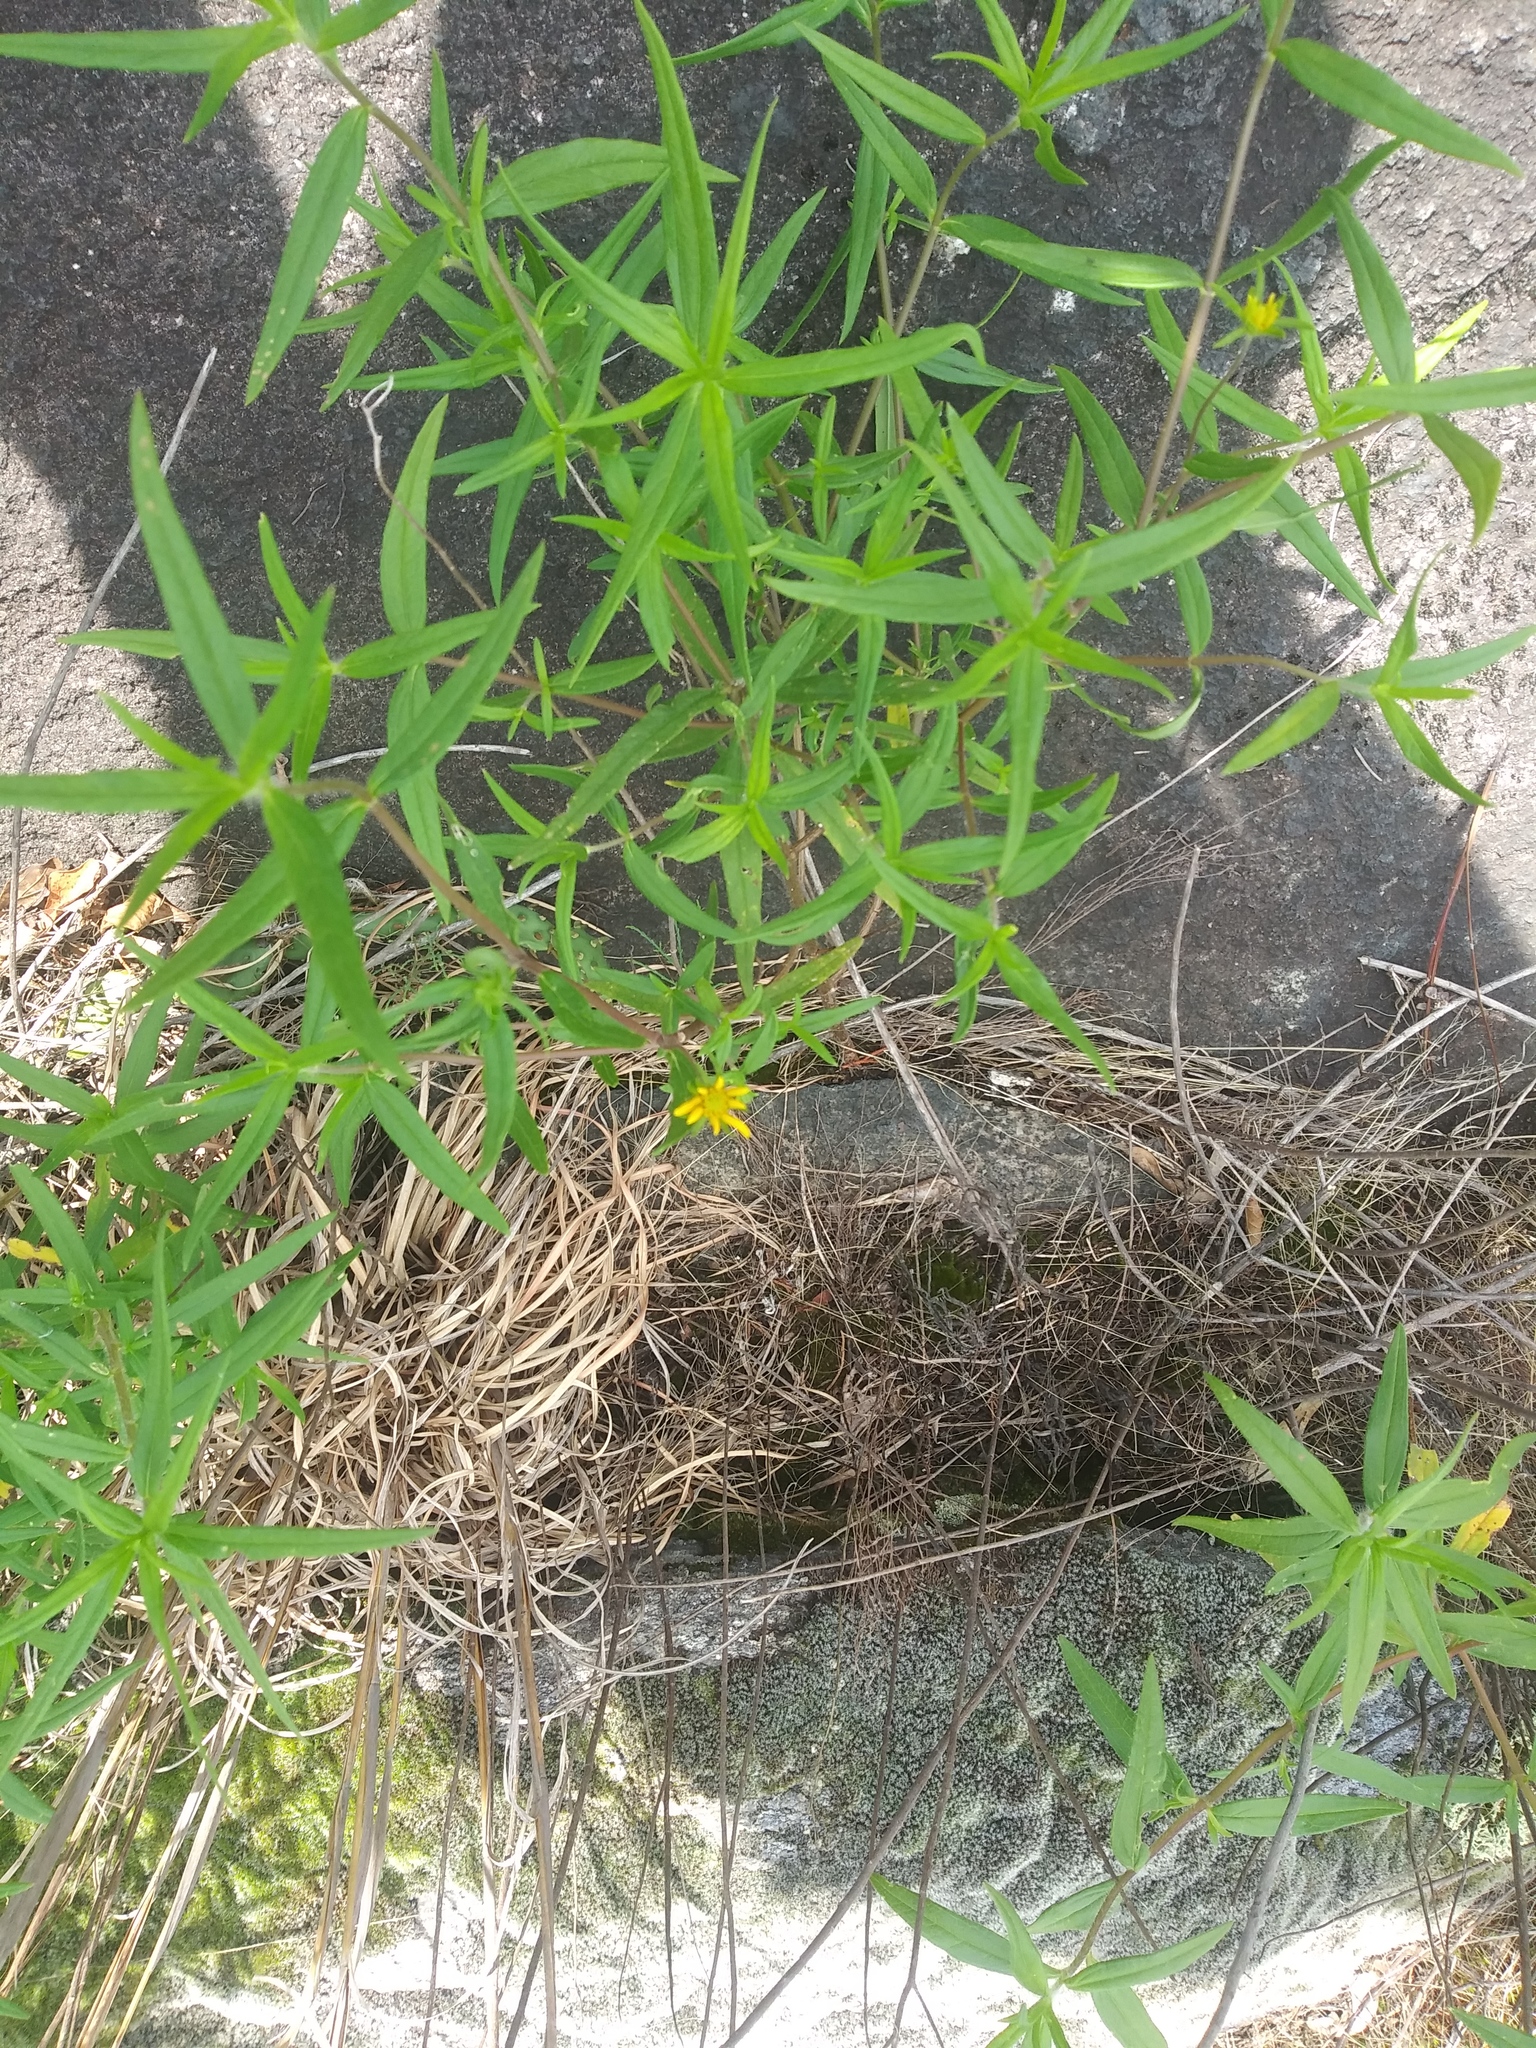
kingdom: Plantae
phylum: Tracheophyta
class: Magnoliopsida
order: Asterales
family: Asteraceae
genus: Helianthus
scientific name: Helianthus porteri
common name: Porter's sunflower
